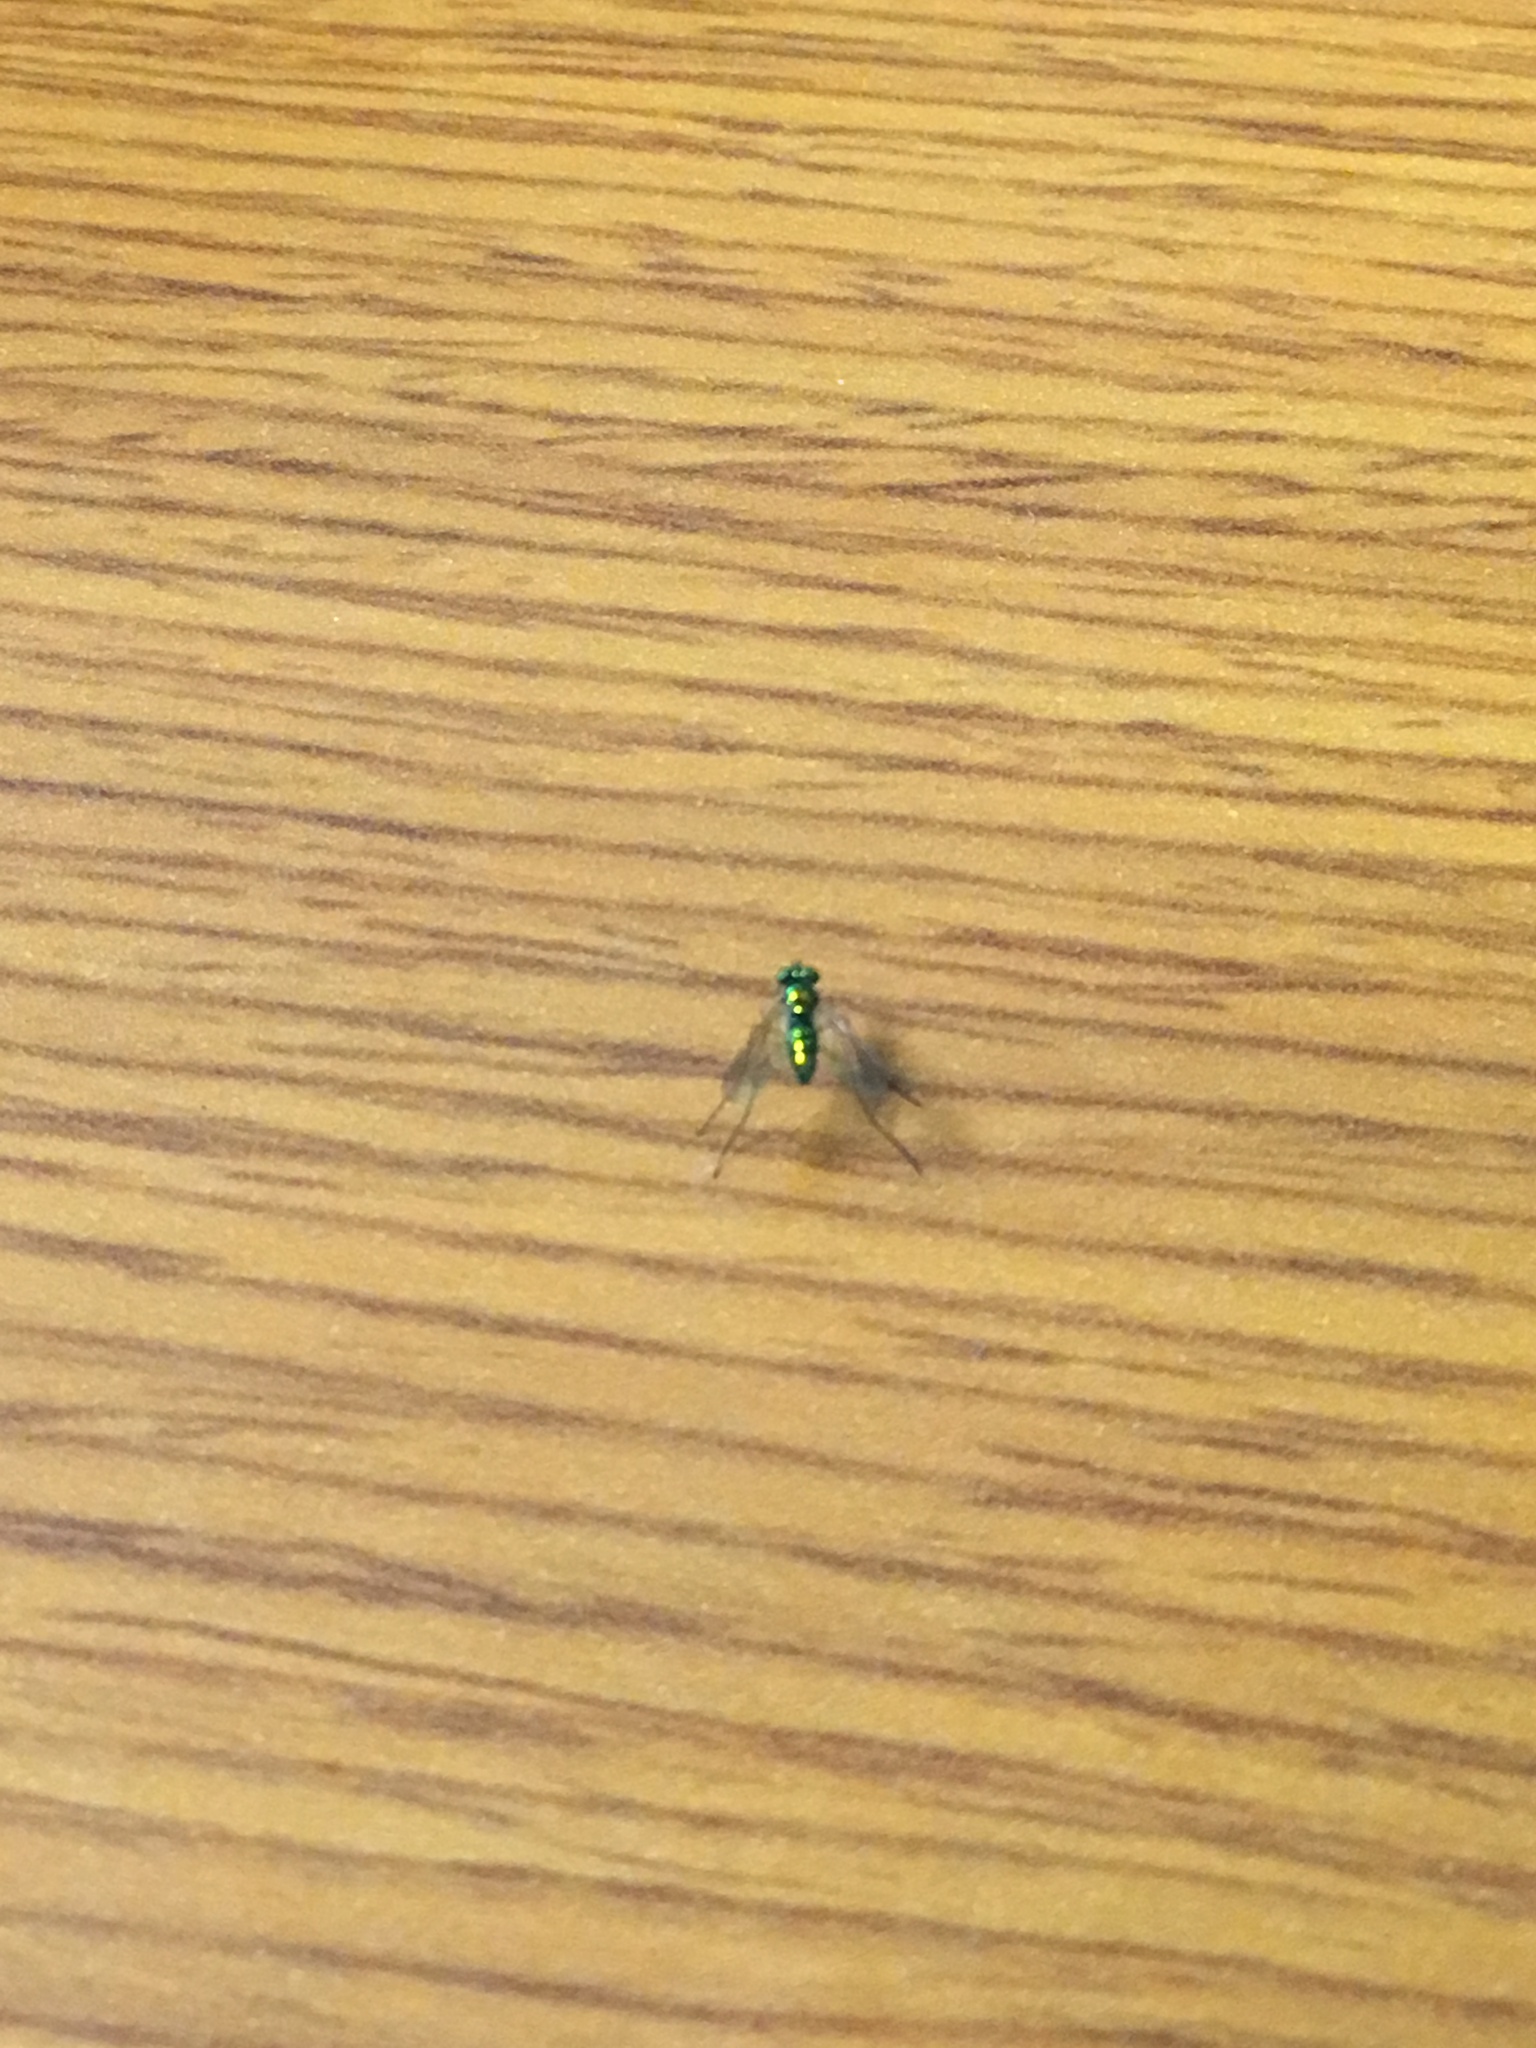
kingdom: Animalia
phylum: Arthropoda
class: Insecta
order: Diptera
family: Dolichopodidae
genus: Amblypsilopus
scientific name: Amblypsilopus scintillans
